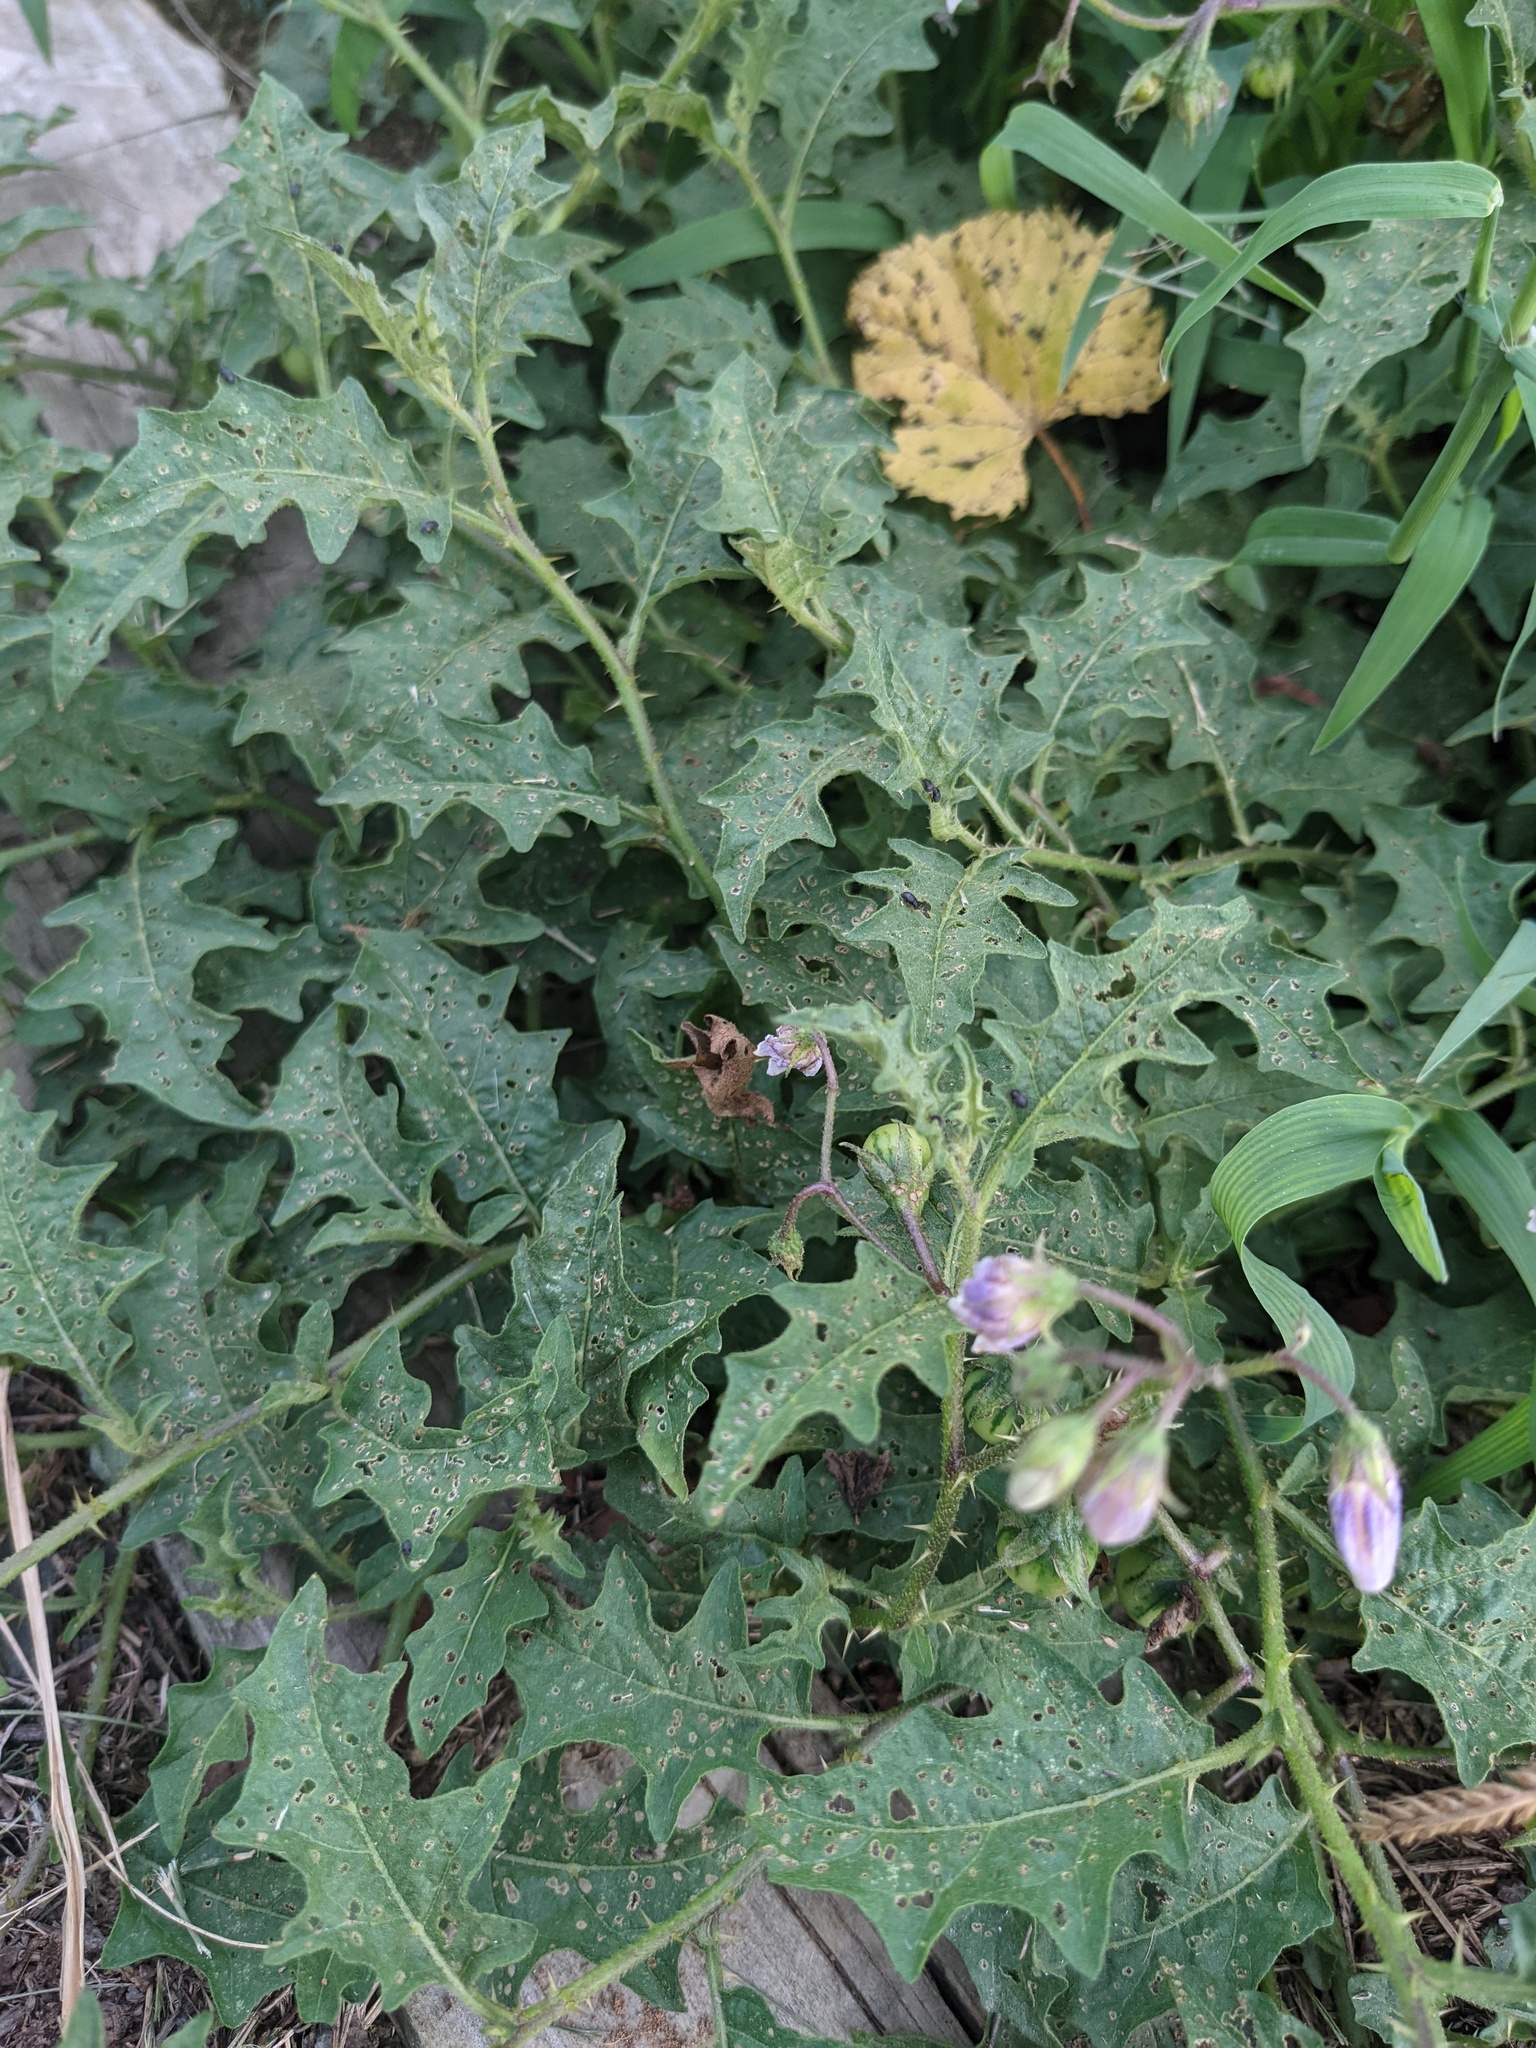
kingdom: Plantae
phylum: Tracheophyta
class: Magnoliopsida
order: Solanales
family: Solanaceae
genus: Solanum
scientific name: Solanum carolinense
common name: Horse-nettle
